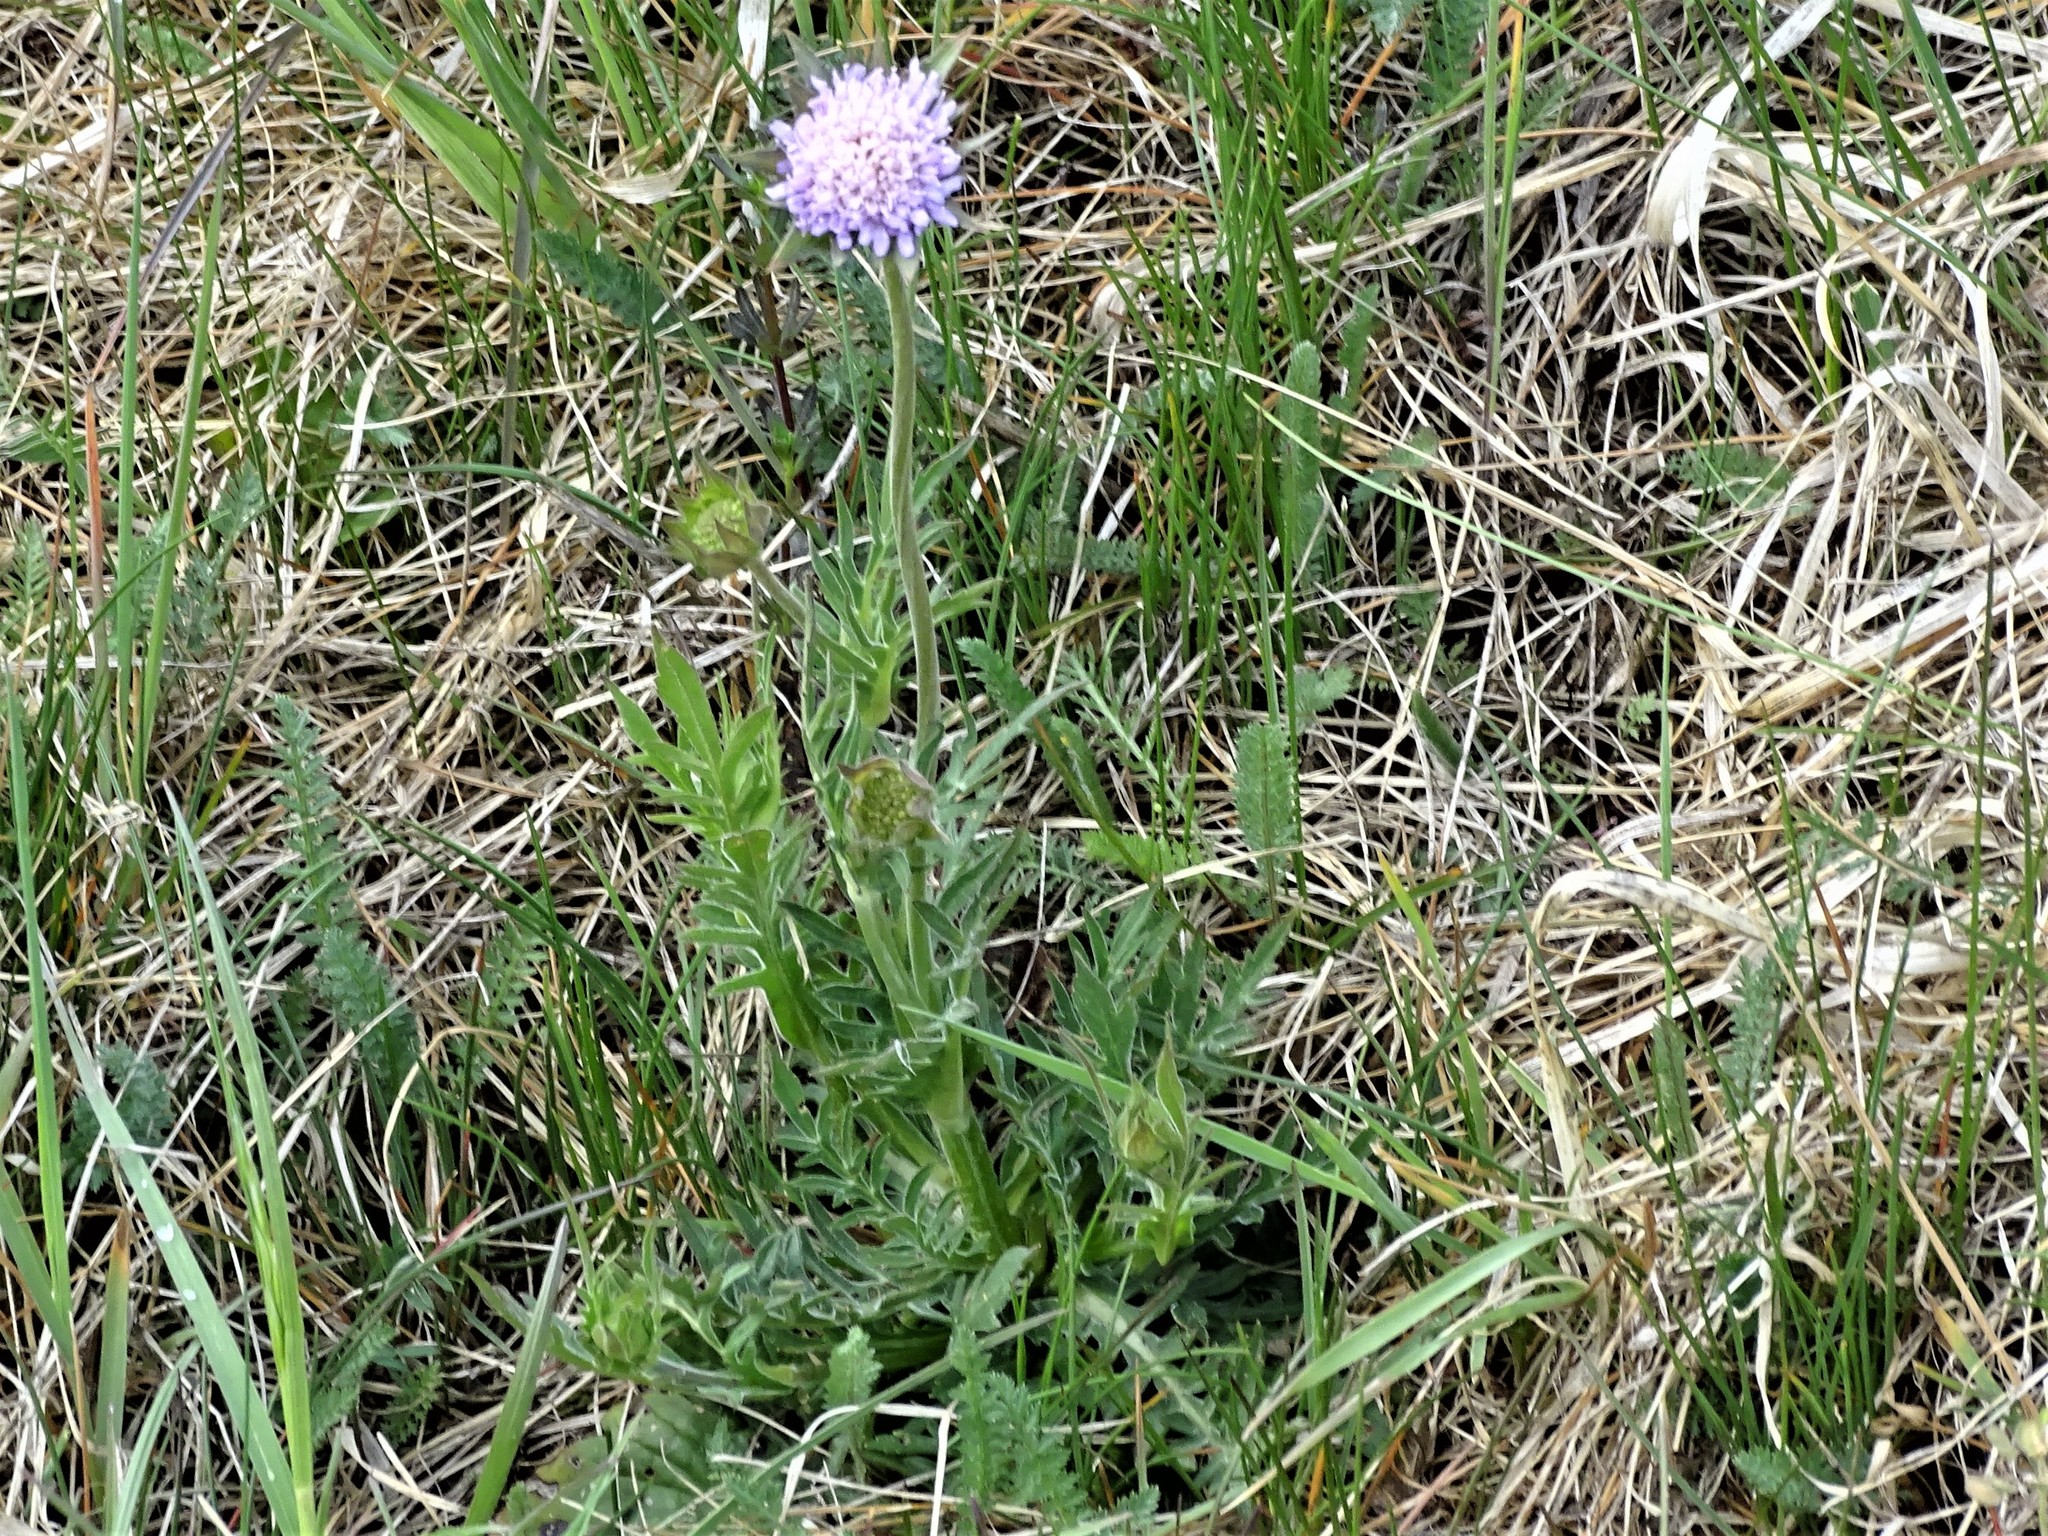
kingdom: Plantae
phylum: Tracheophyta
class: Magnoliopsida
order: Dipsacales
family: Caprifoliaceae
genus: Knautia
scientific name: Knautia arvensis
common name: Field scabiosa
